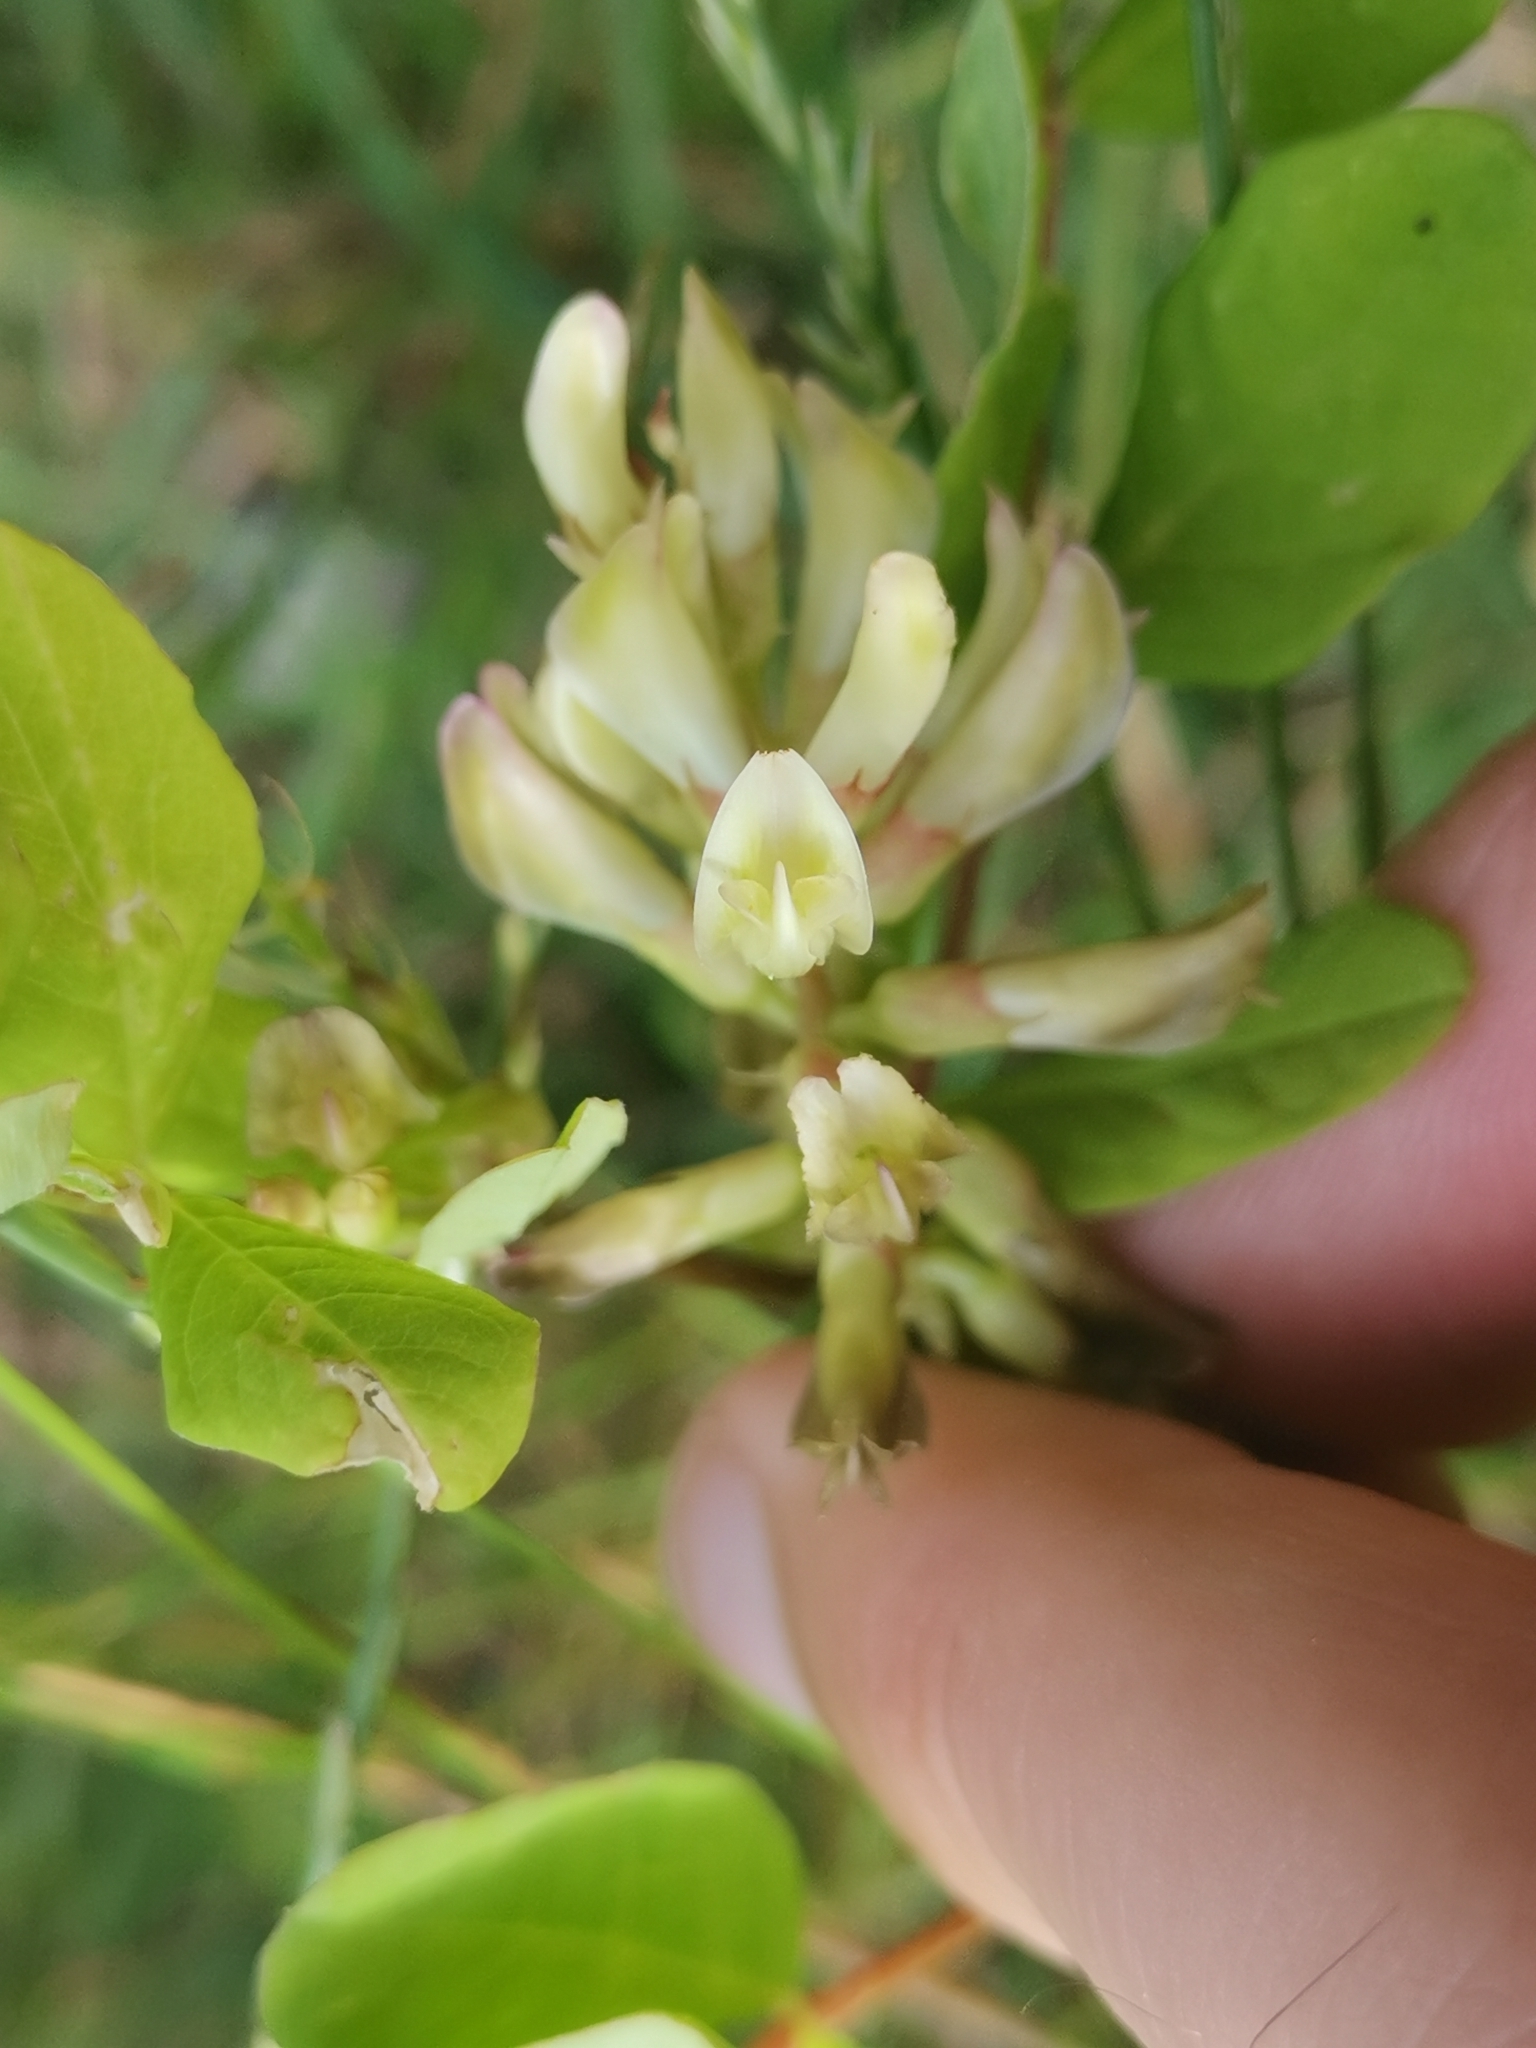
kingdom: Plantae
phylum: Tracheophyta
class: Magnoliopsida
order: Fabales
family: Fabaceae
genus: Astragalus
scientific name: Astragalus glycyphyllos
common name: Wild liquorice
